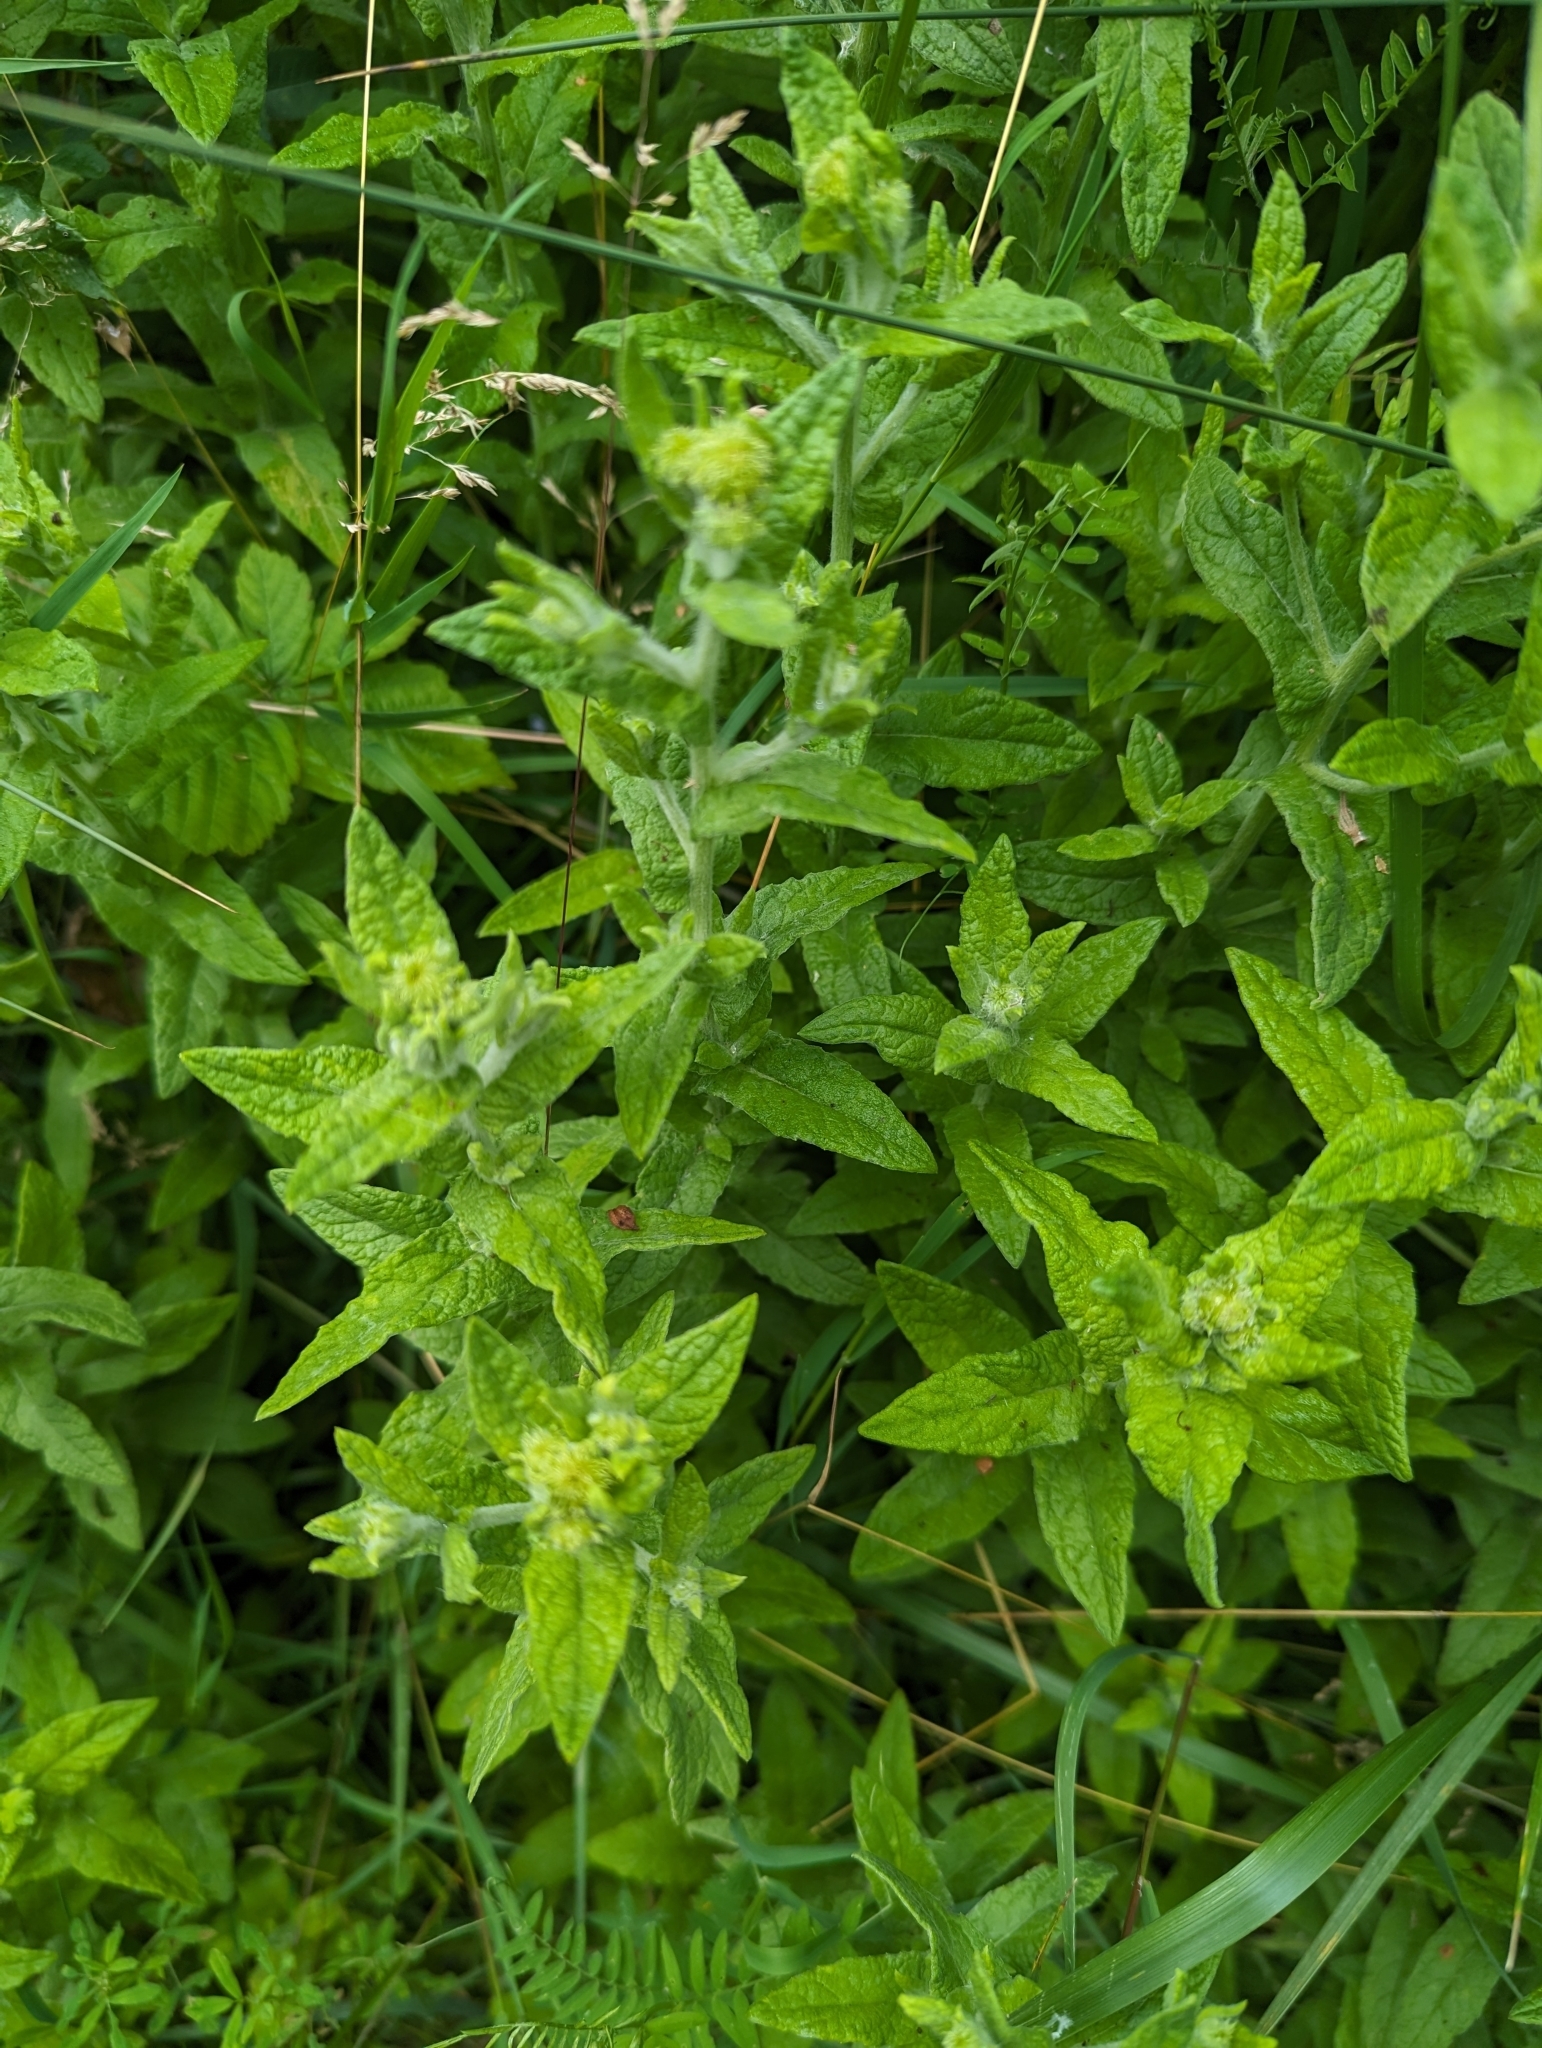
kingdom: Plantae
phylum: Tracheophyta
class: Magnoliopsida
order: Asterales
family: Asteraceae
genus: Pulicaria
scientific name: Pulicaria dysenterica
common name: Common fleabane
